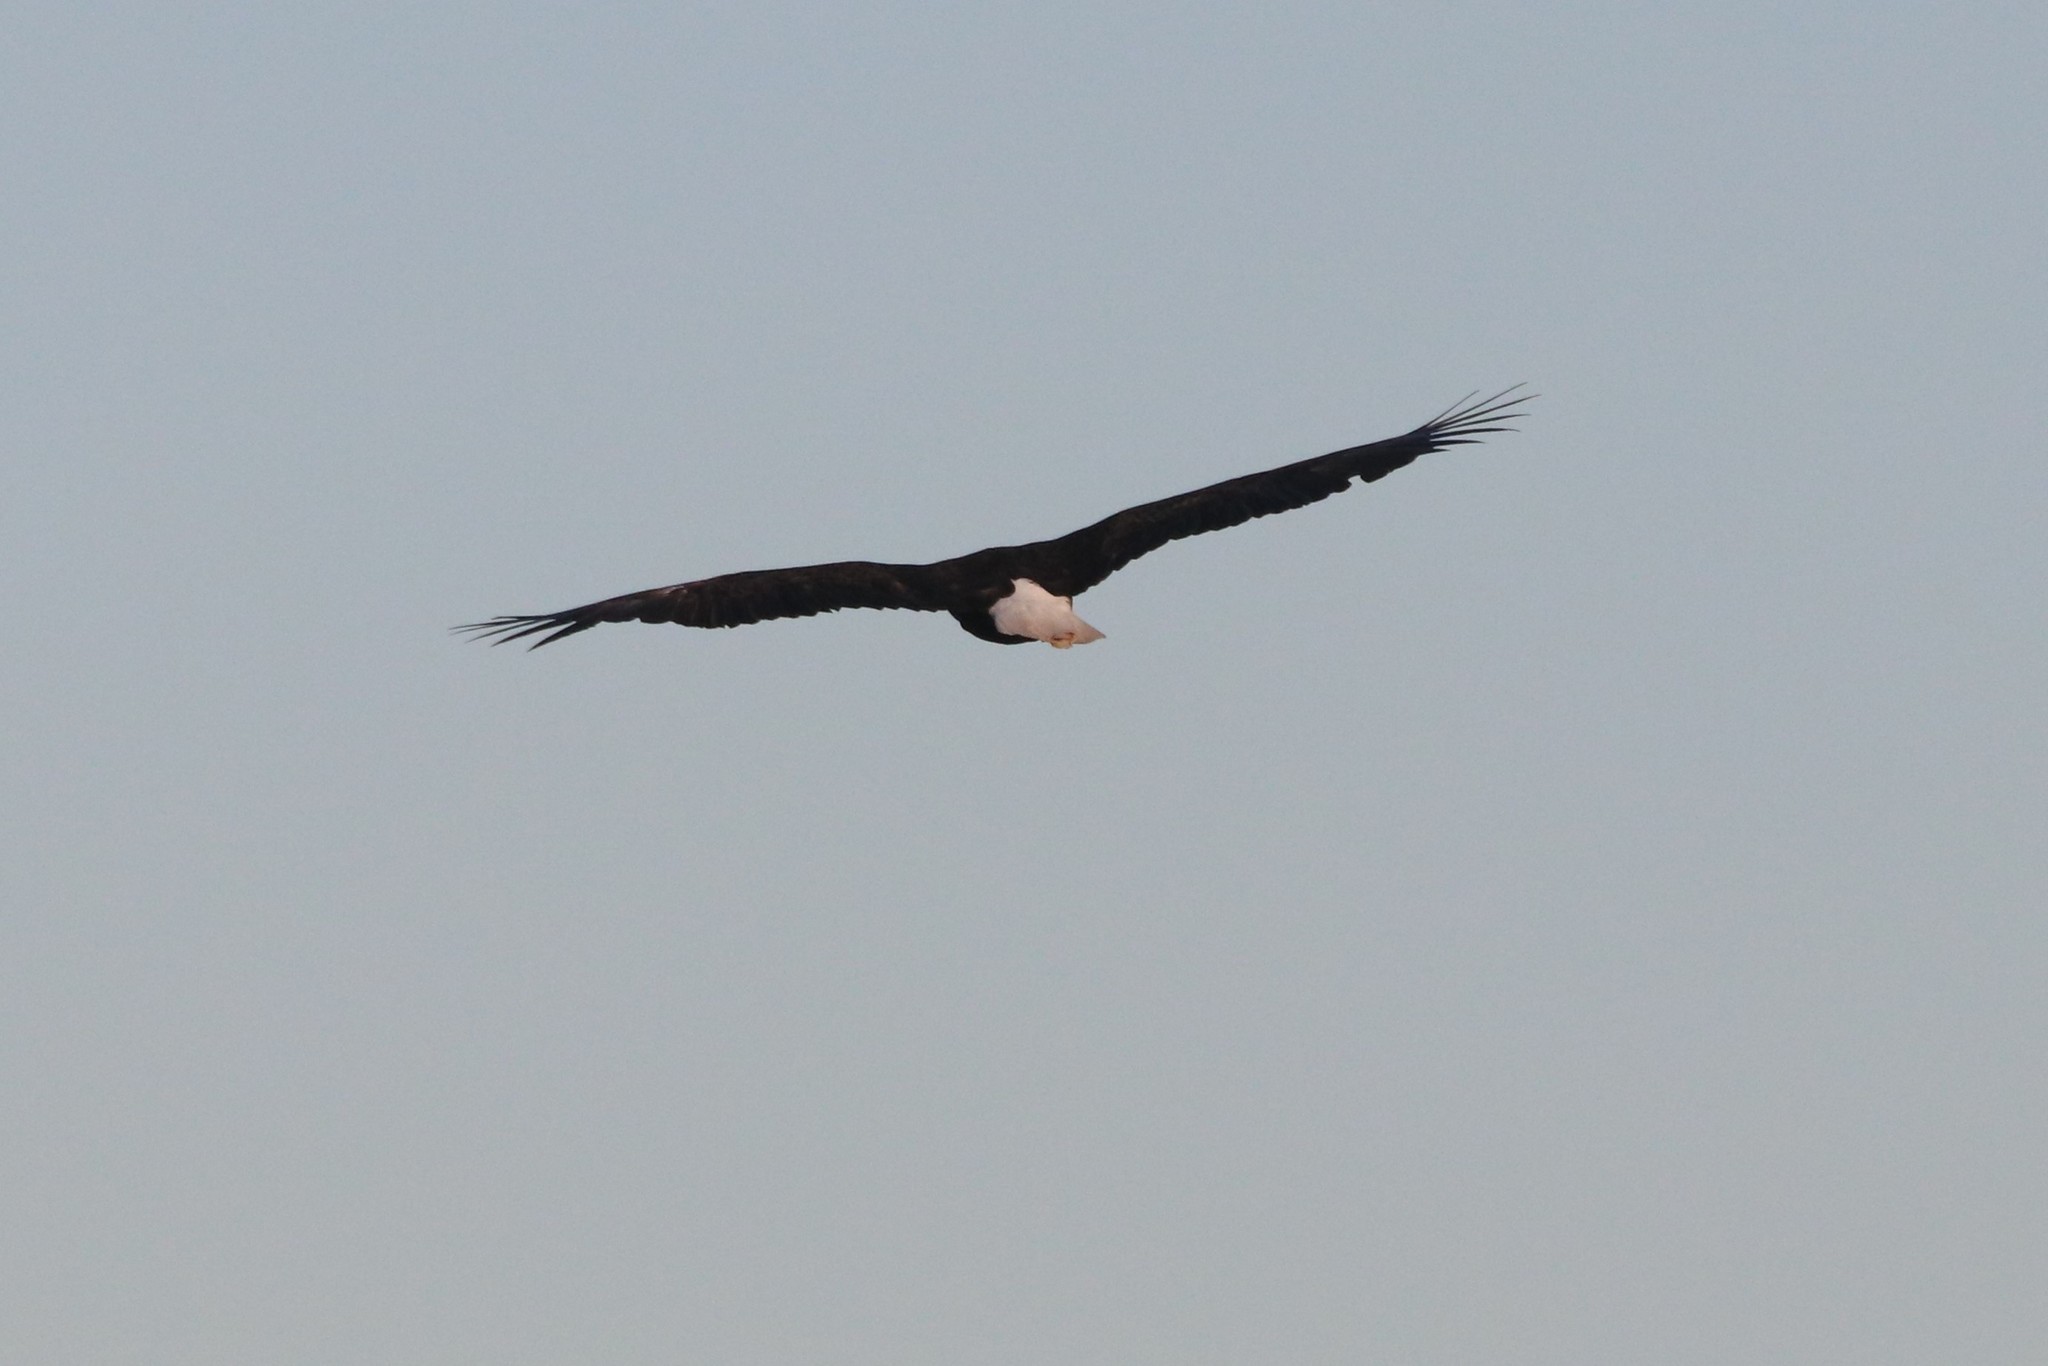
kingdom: Animalia
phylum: Chordata
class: Aves
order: Accipitriformes
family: Accipitridae
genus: Haliaeetus
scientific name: Haliaeetus leucocephalus
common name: Bald eagle
